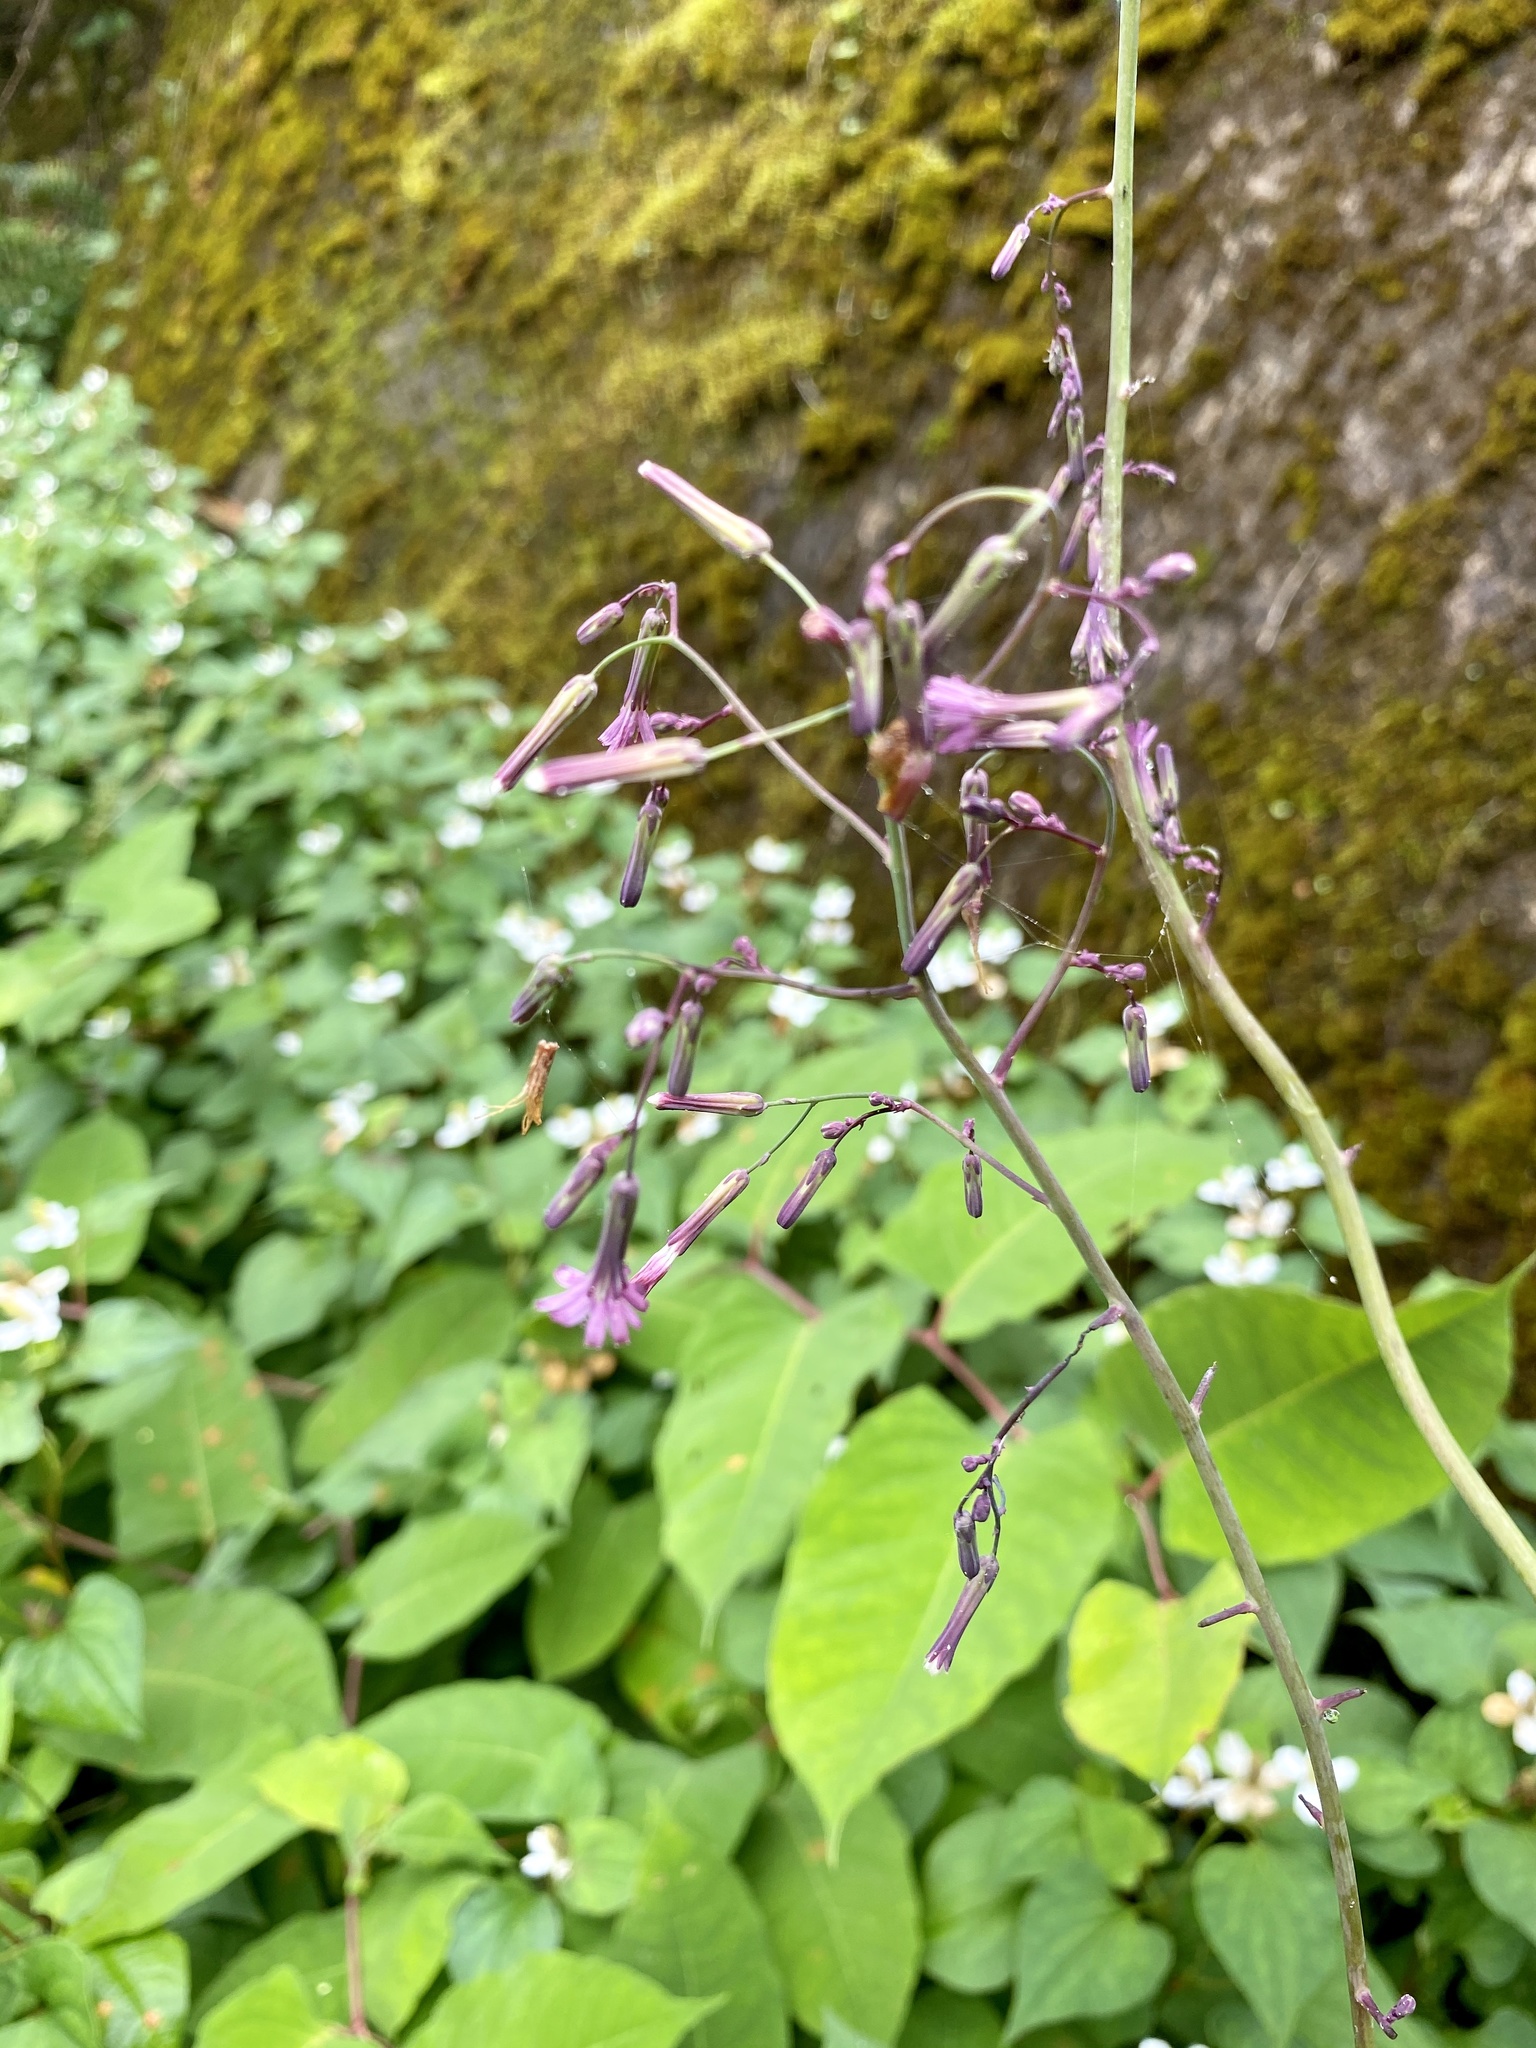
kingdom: Plantae
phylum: Tracheophyta
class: Magnoliopsida
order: Asterales
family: Asteraceae
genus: Paraprenanthes
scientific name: Paraprenanthes sororia
